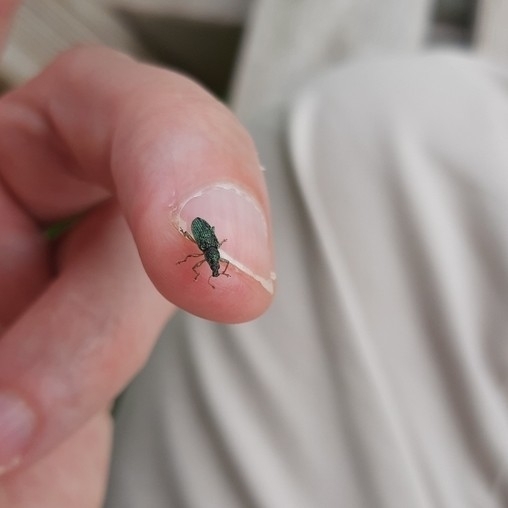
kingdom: Animalia
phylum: Arthropoda
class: Insecta
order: Coleoptera
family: Curculionidae
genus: Polydrusus
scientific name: Polydrusus formosus
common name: Weevil
